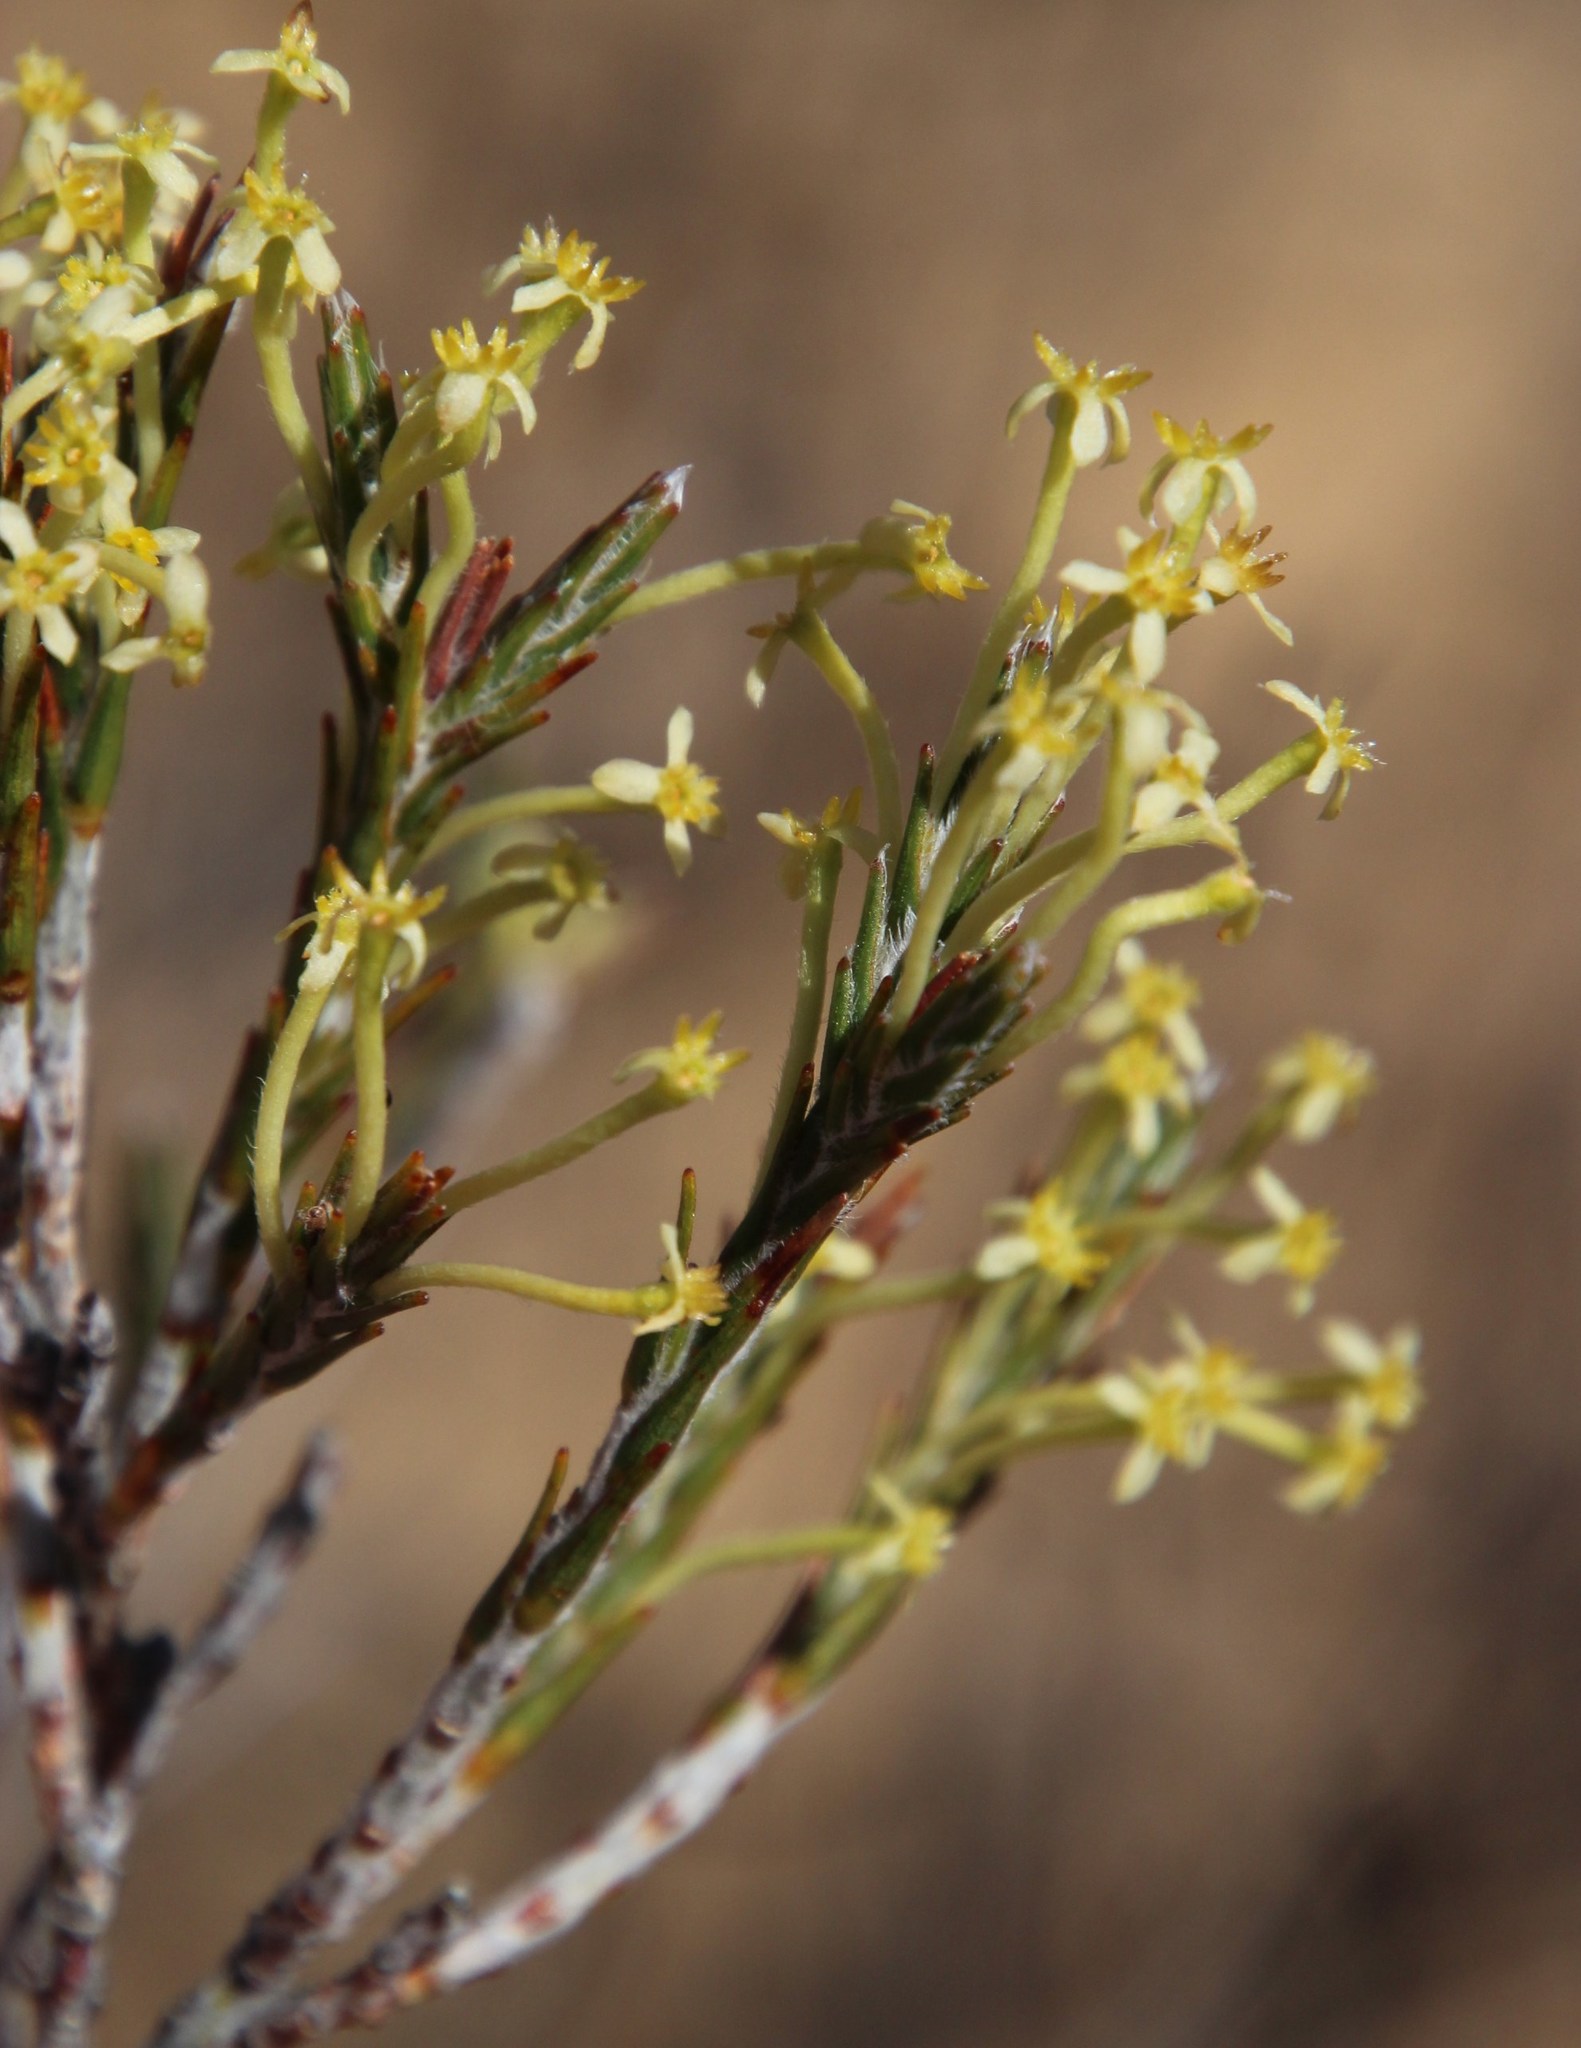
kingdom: Plantae
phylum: Tracheophyta
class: Magnoliopsida
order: Malvales
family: Thymelaeaceae
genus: Struthiola
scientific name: Struthiola ciliata
